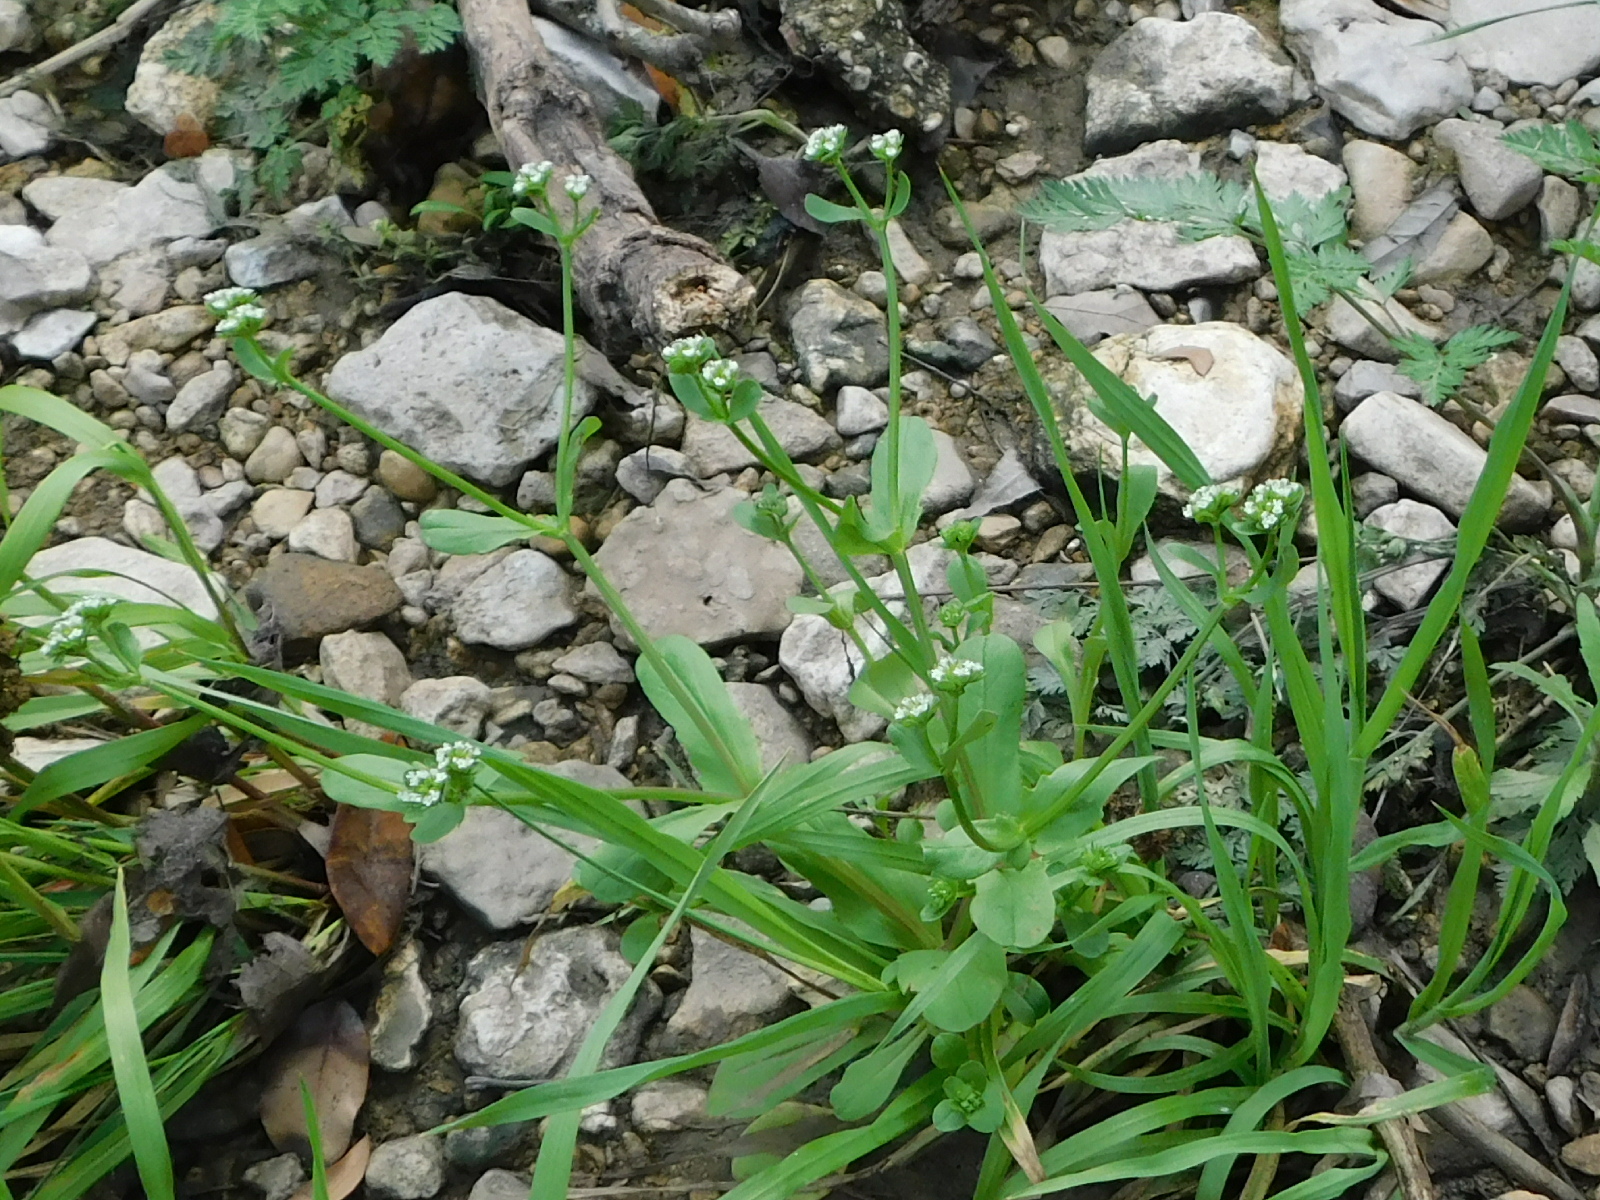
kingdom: Plantae
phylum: Tracheophyta
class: Magnoliopsida
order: Dipsacales
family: Caprifoliaceae
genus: Valerianella
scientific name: Valerianella radiata
